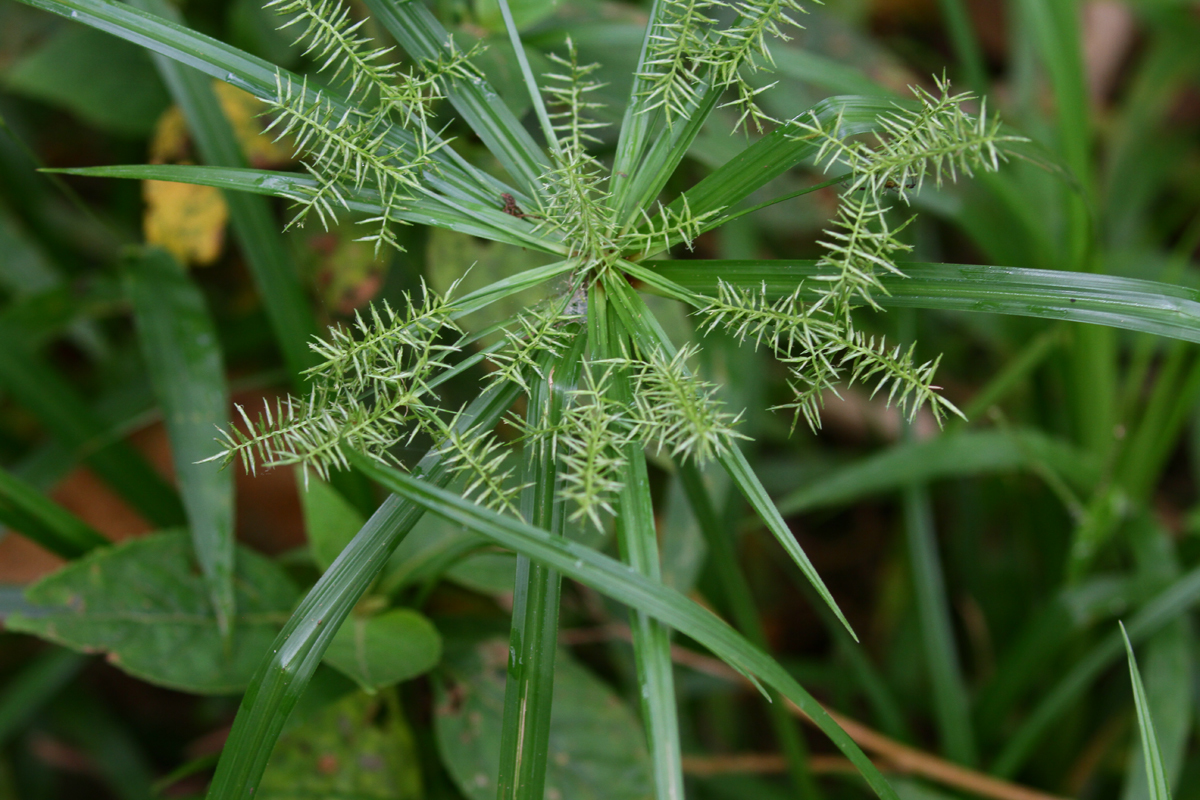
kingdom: Plantae
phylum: Tracheophyta
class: Liliopsida
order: Poales
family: Cyperaceae
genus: Cyperus
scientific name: Cyperus meyenianus
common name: Meyen's flatsedge
